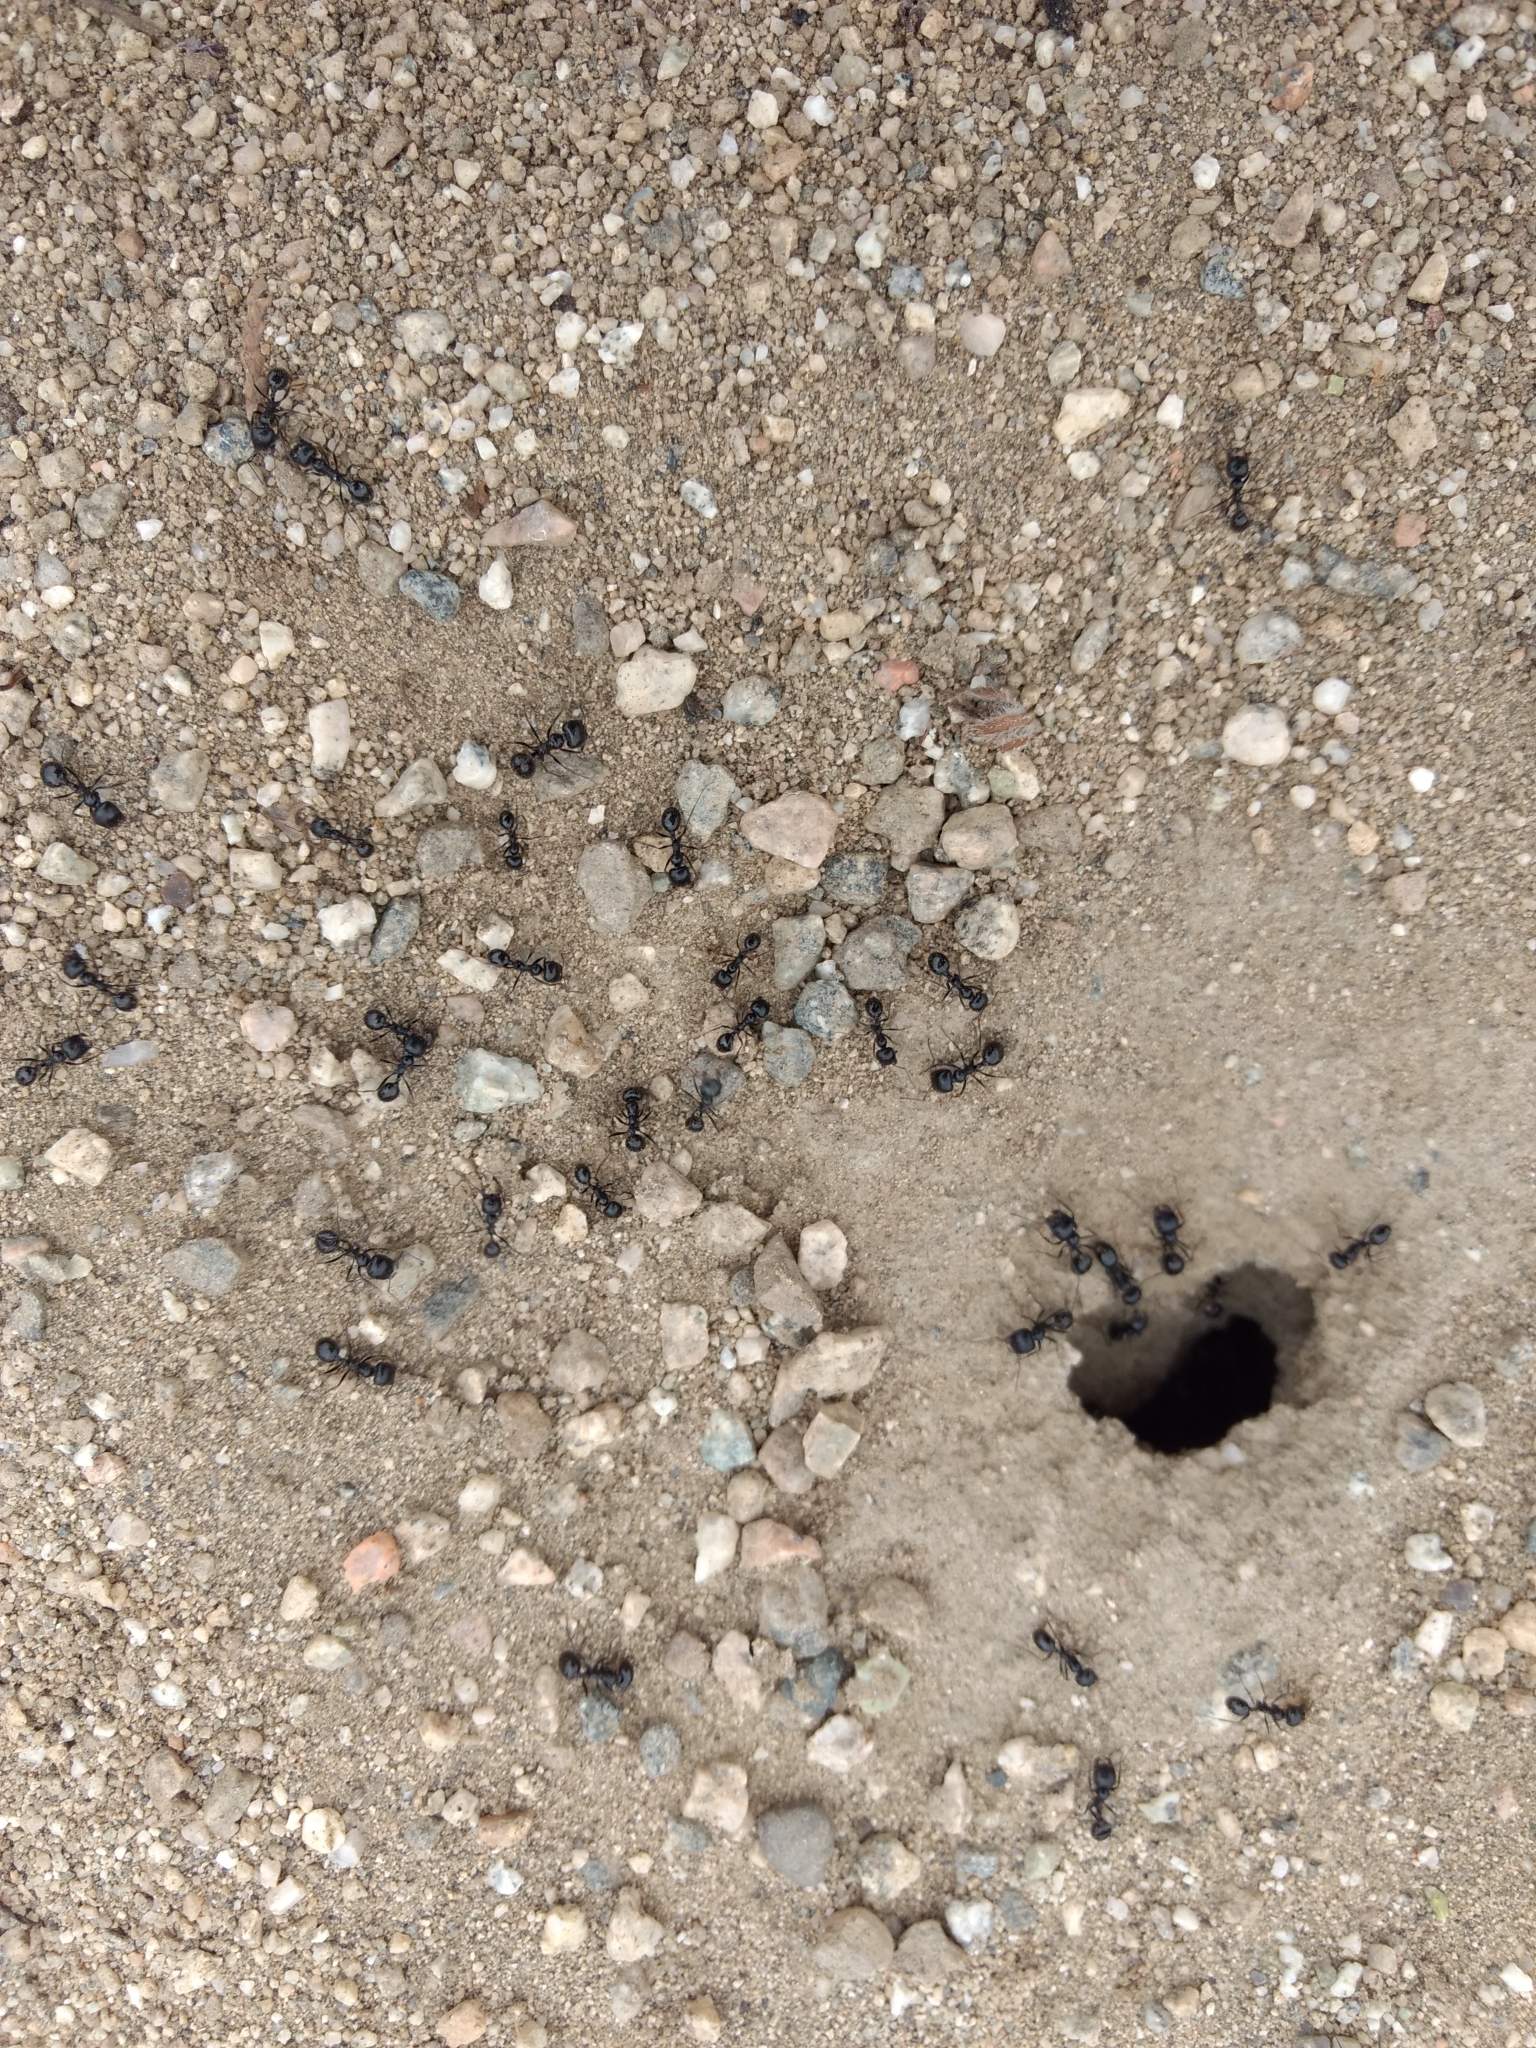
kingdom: Animalia
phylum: Arthropoda
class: Insecta
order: Hymenoptera
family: Formicidae
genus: Messor
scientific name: Messor pergandei
